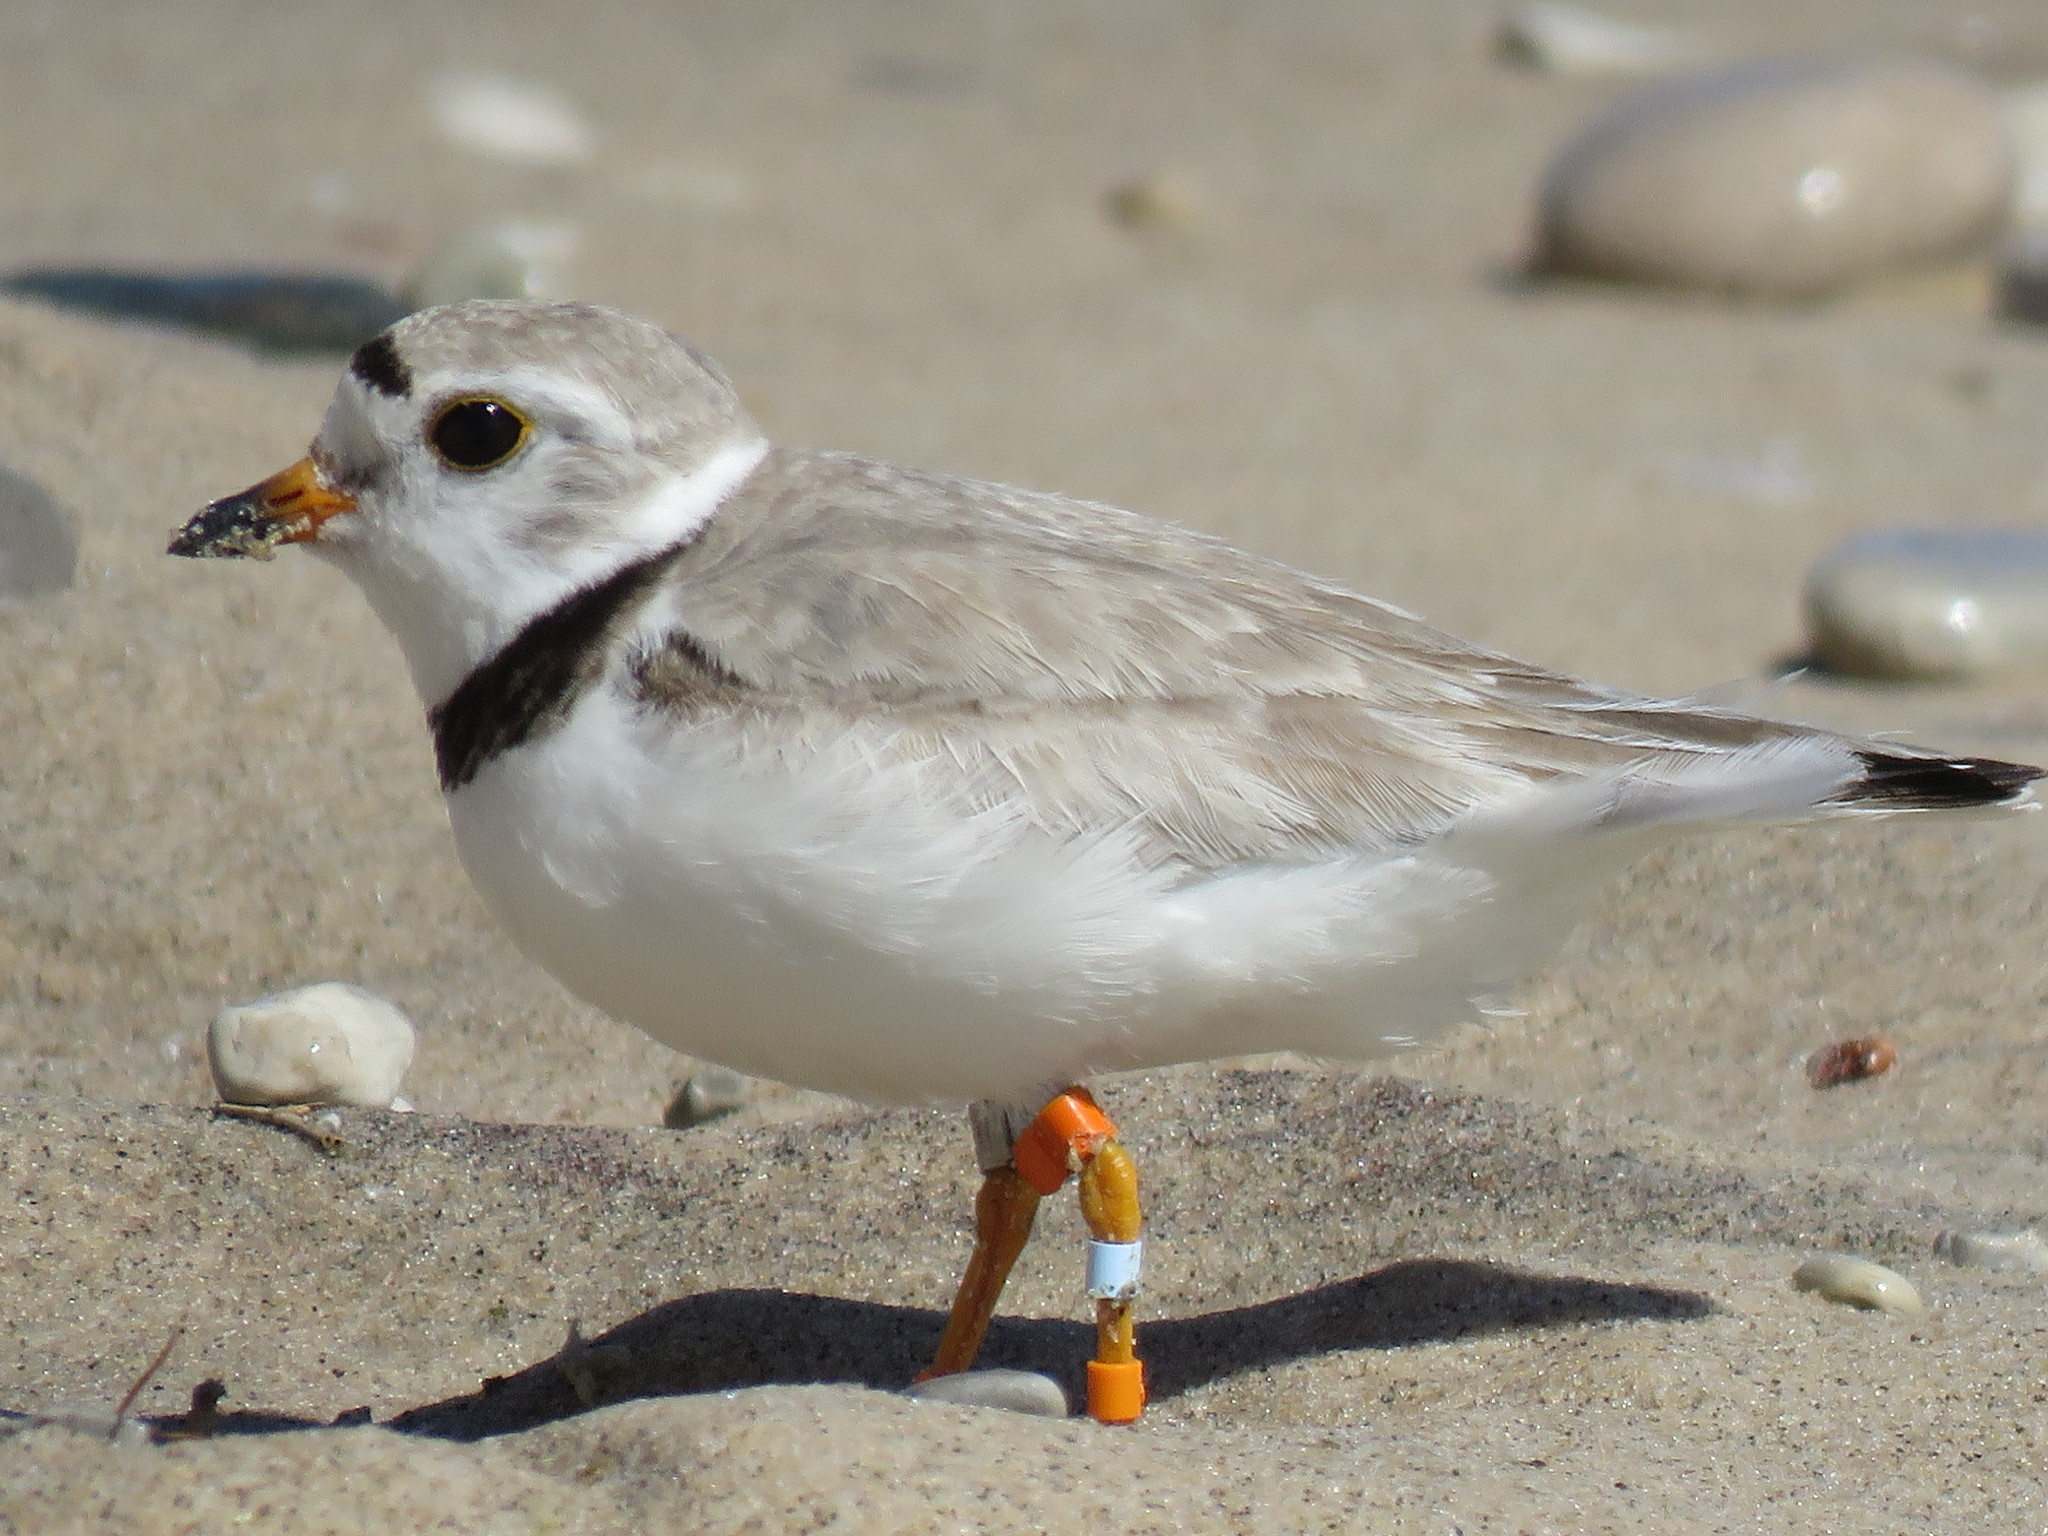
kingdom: Animalia
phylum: Chordata
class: Aves
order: Charadriiformes
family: Charadriidae
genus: Charadrius
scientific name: Charadrius melodus
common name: Piping plover
